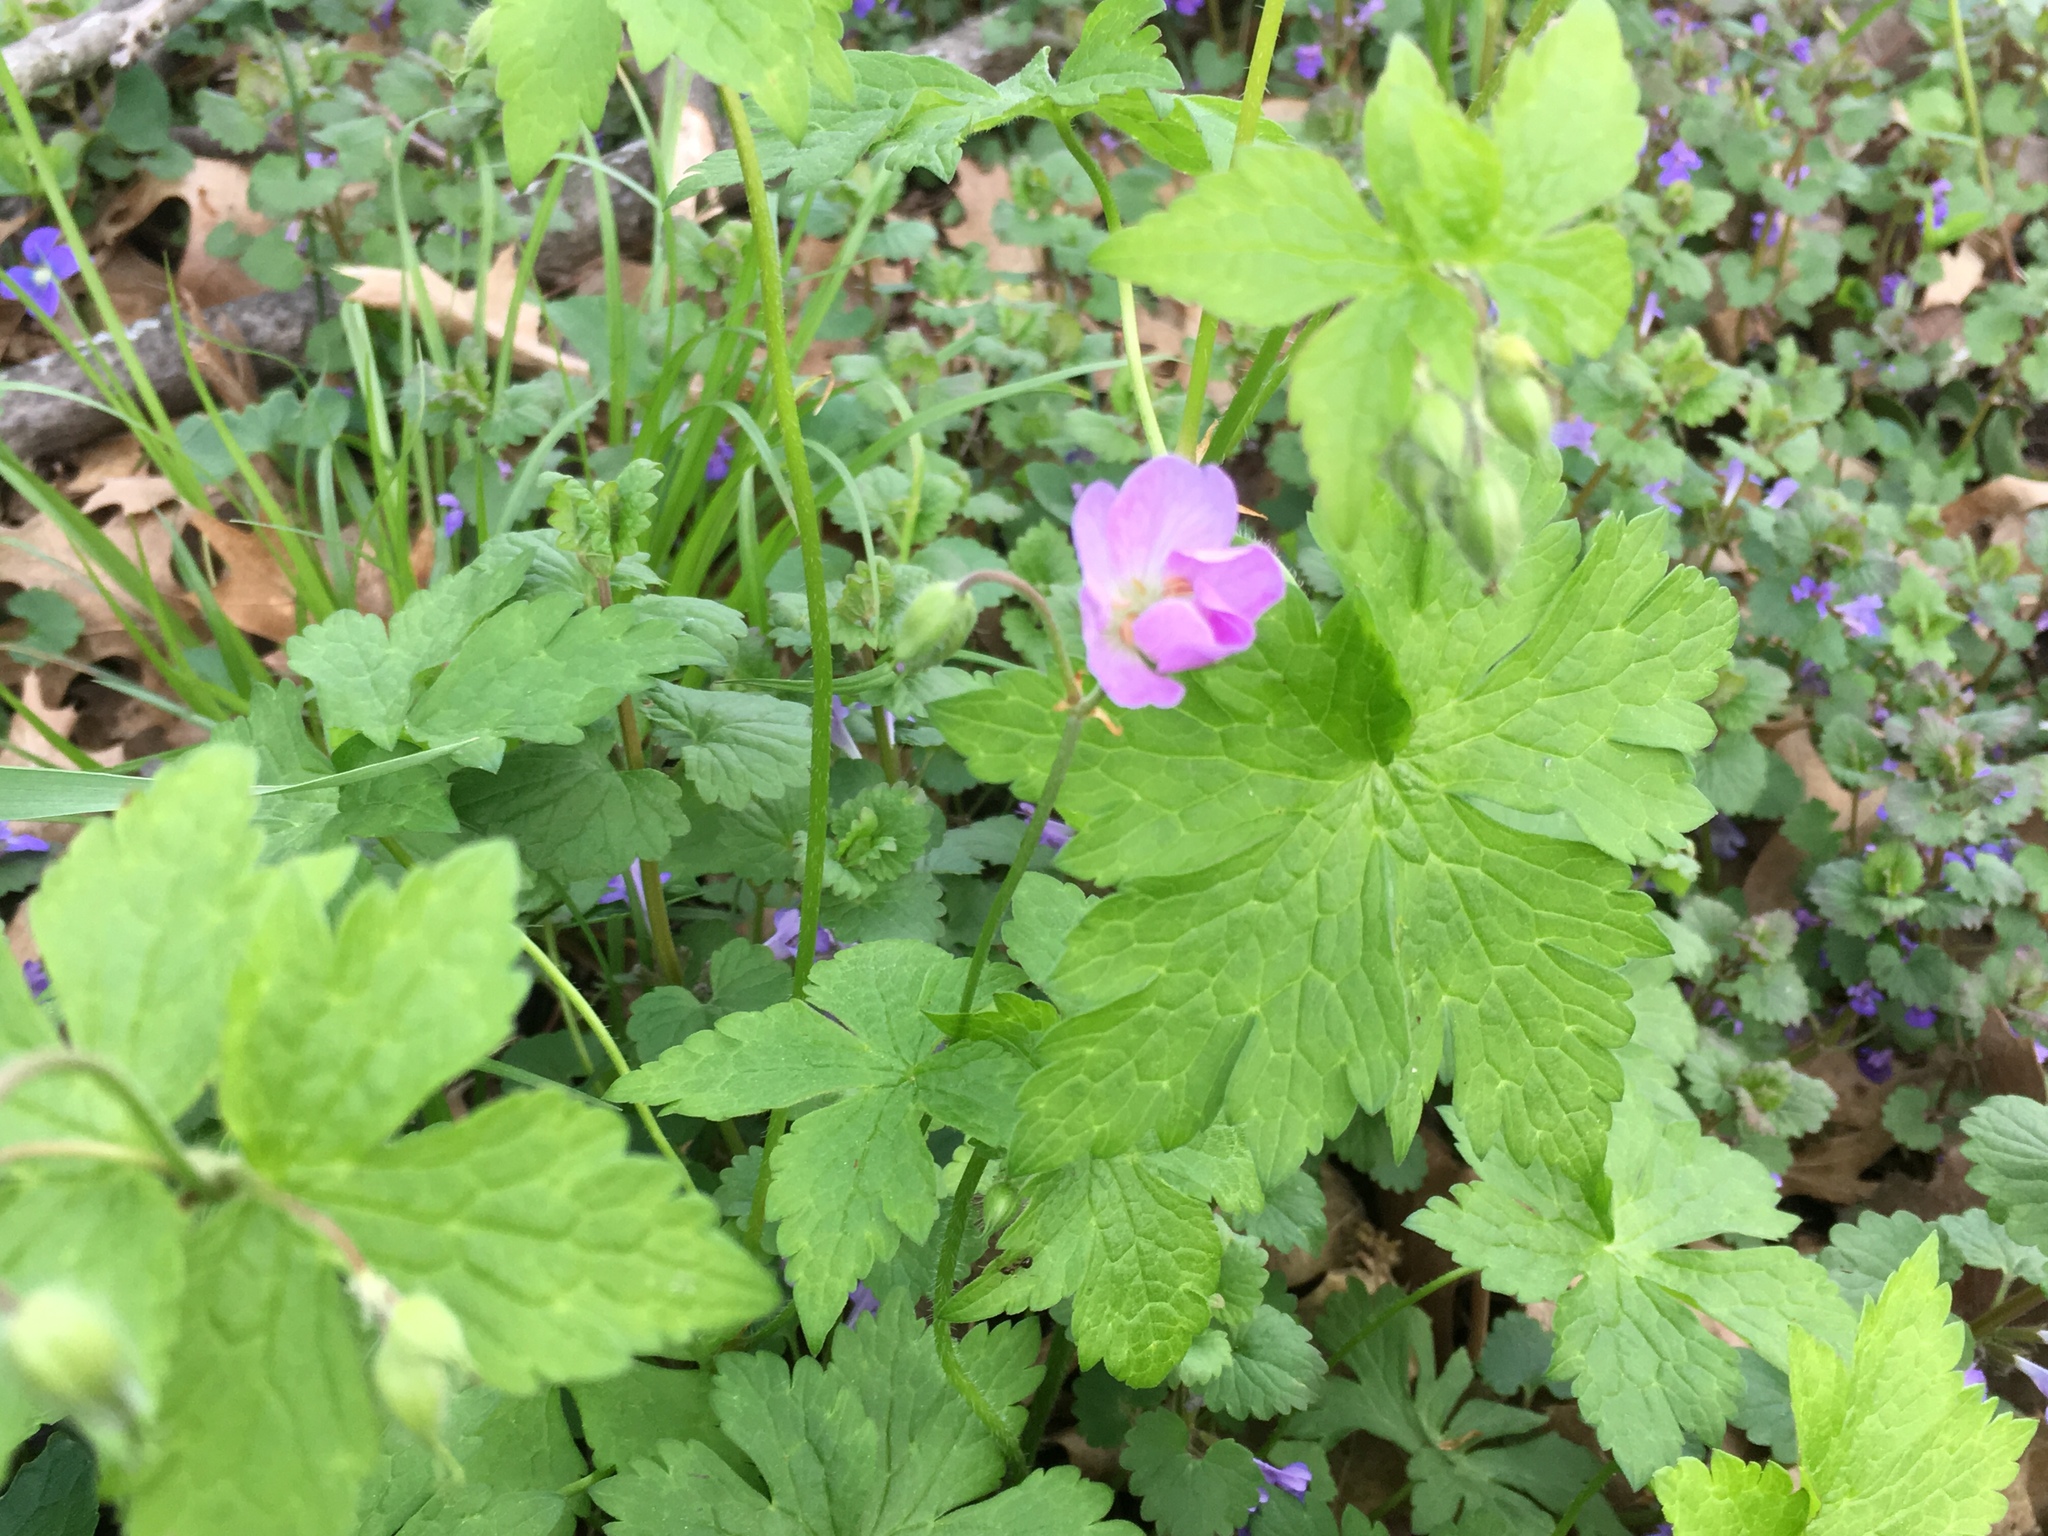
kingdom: Plantae
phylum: Tracheophyta
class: Magnoliopsida
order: Geraniales
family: Geraniaceae
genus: Geranium
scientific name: Geranium maculatum
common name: Spotted geranium
